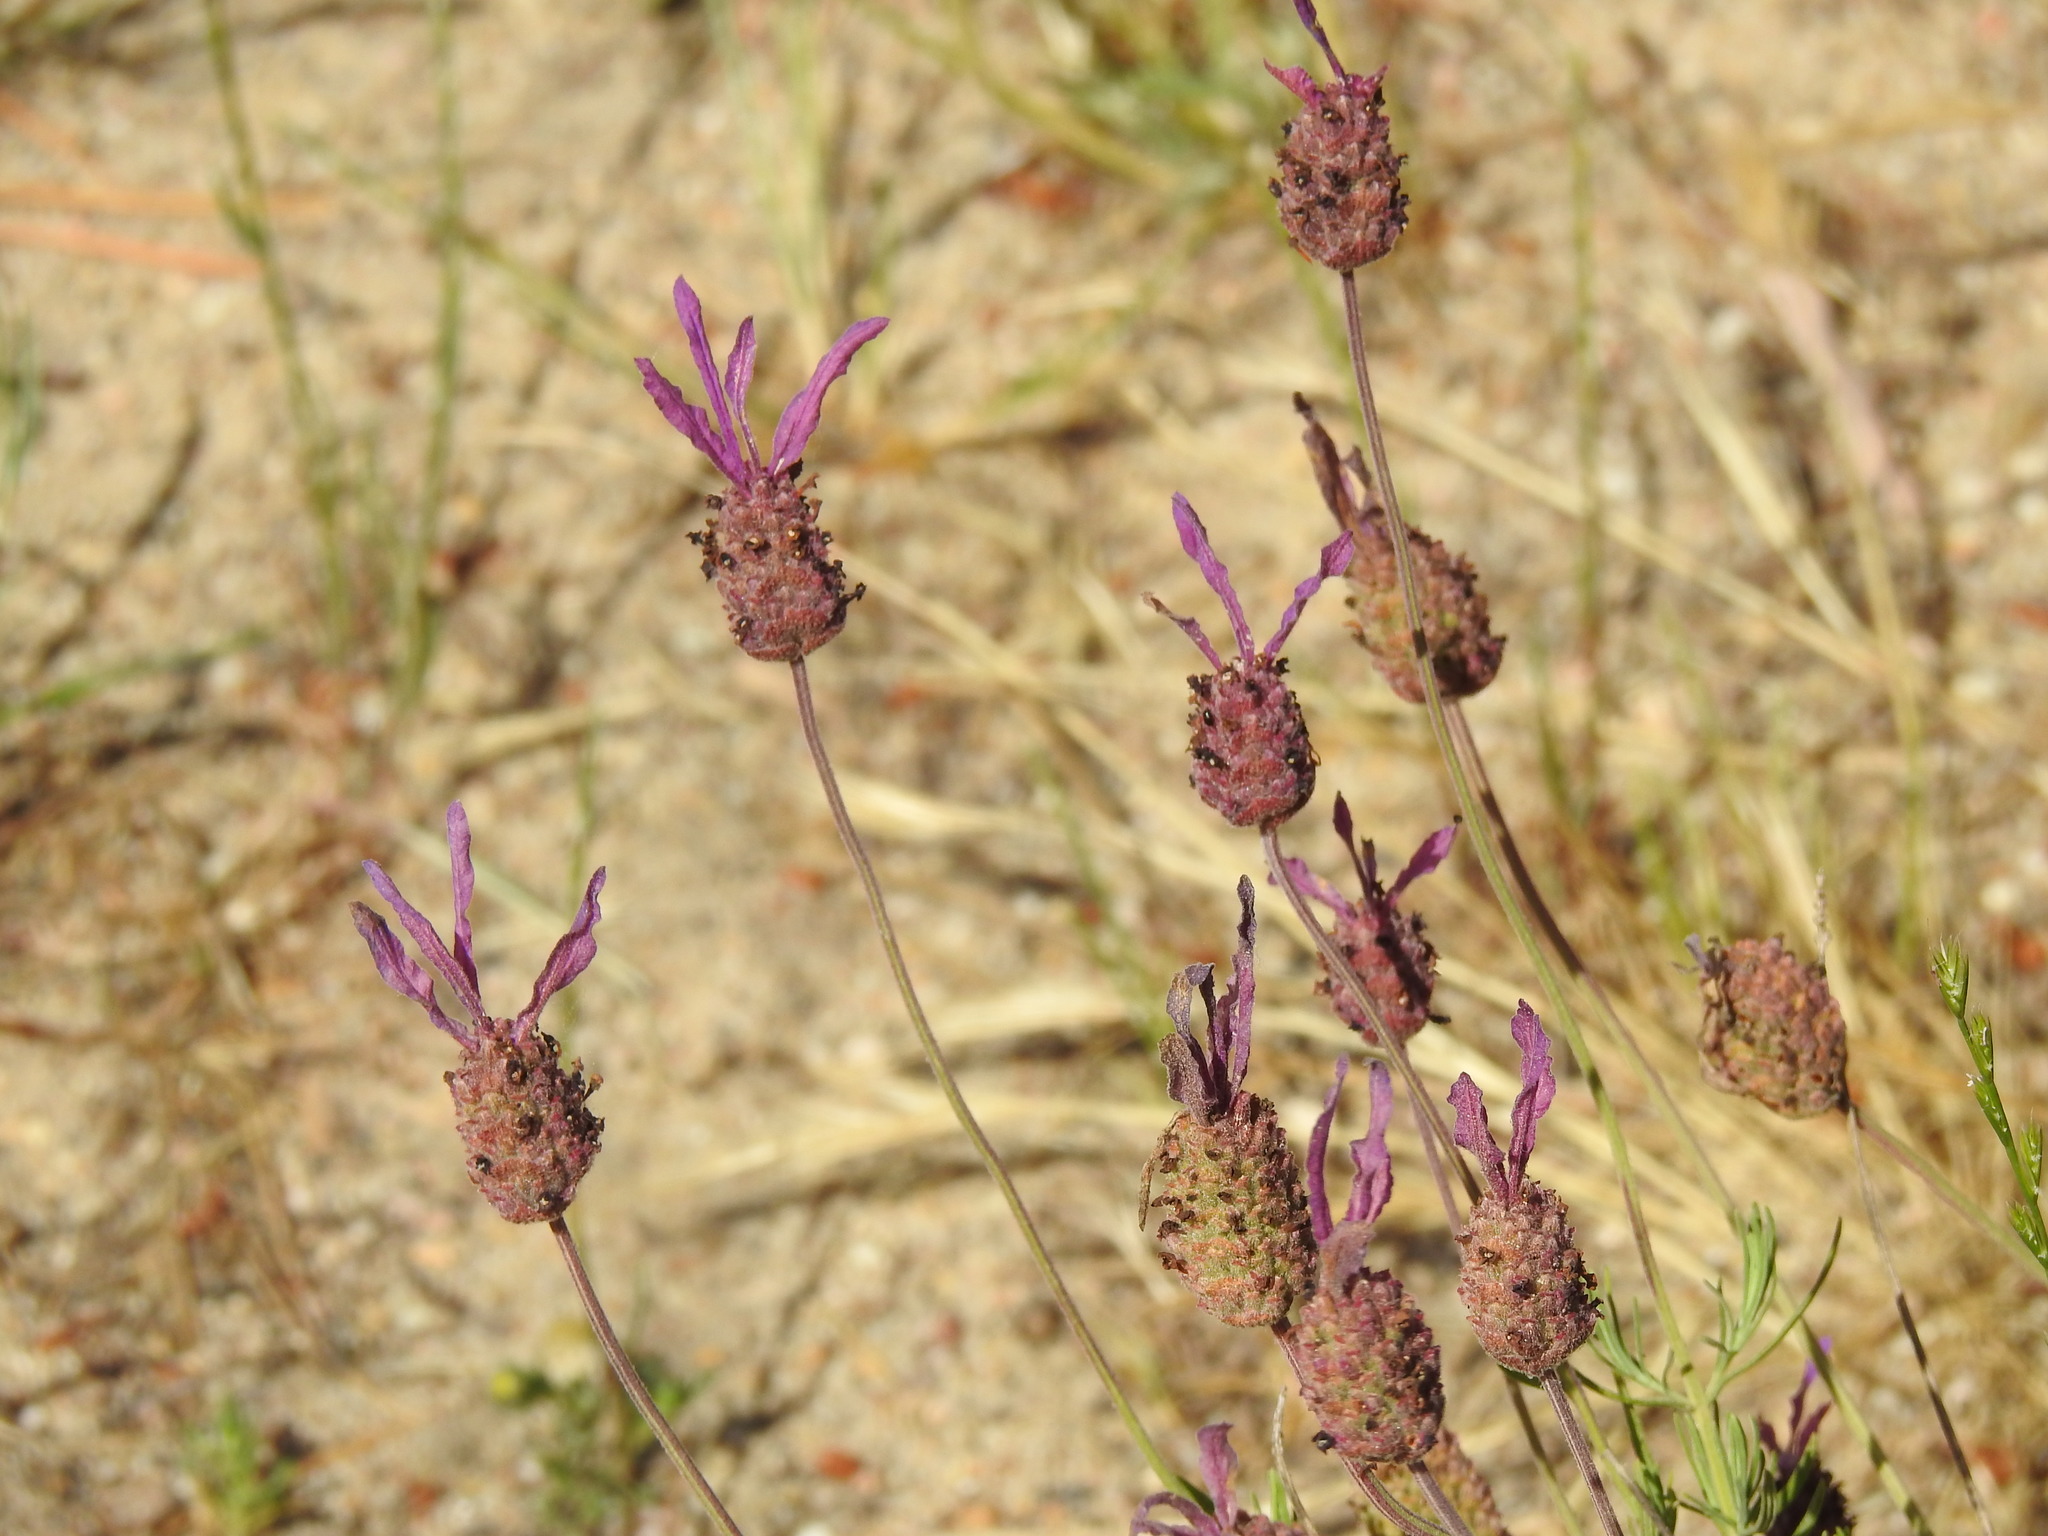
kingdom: Plantae
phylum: Tracheophyta
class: Magnoliopsida
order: Lamiales
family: Lamiaceae
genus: Lavandula
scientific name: Lavandula pedunculata
